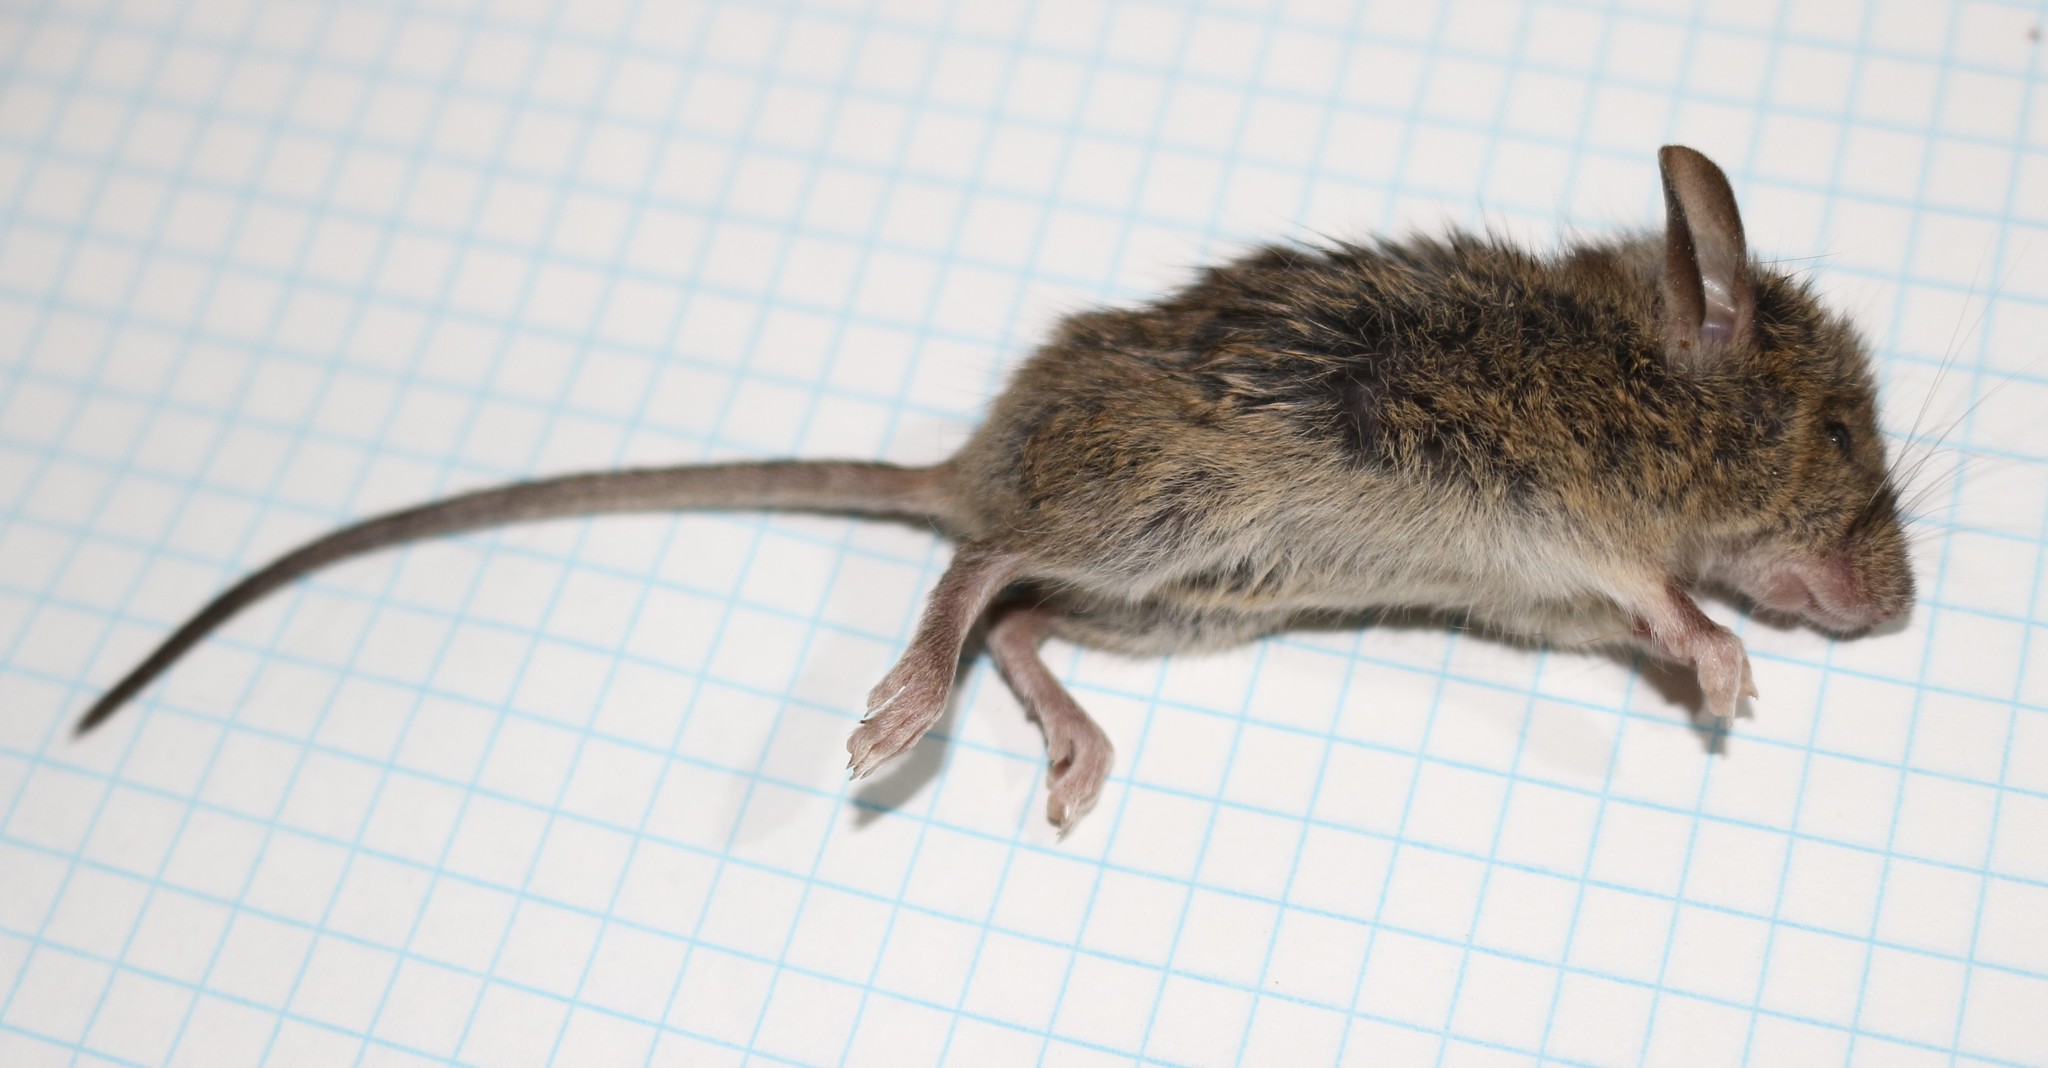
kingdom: Animalia
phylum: Chordata
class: Mammalia
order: Rodentia
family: Muridae
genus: Mus
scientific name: Mus musculus
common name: House mouse
